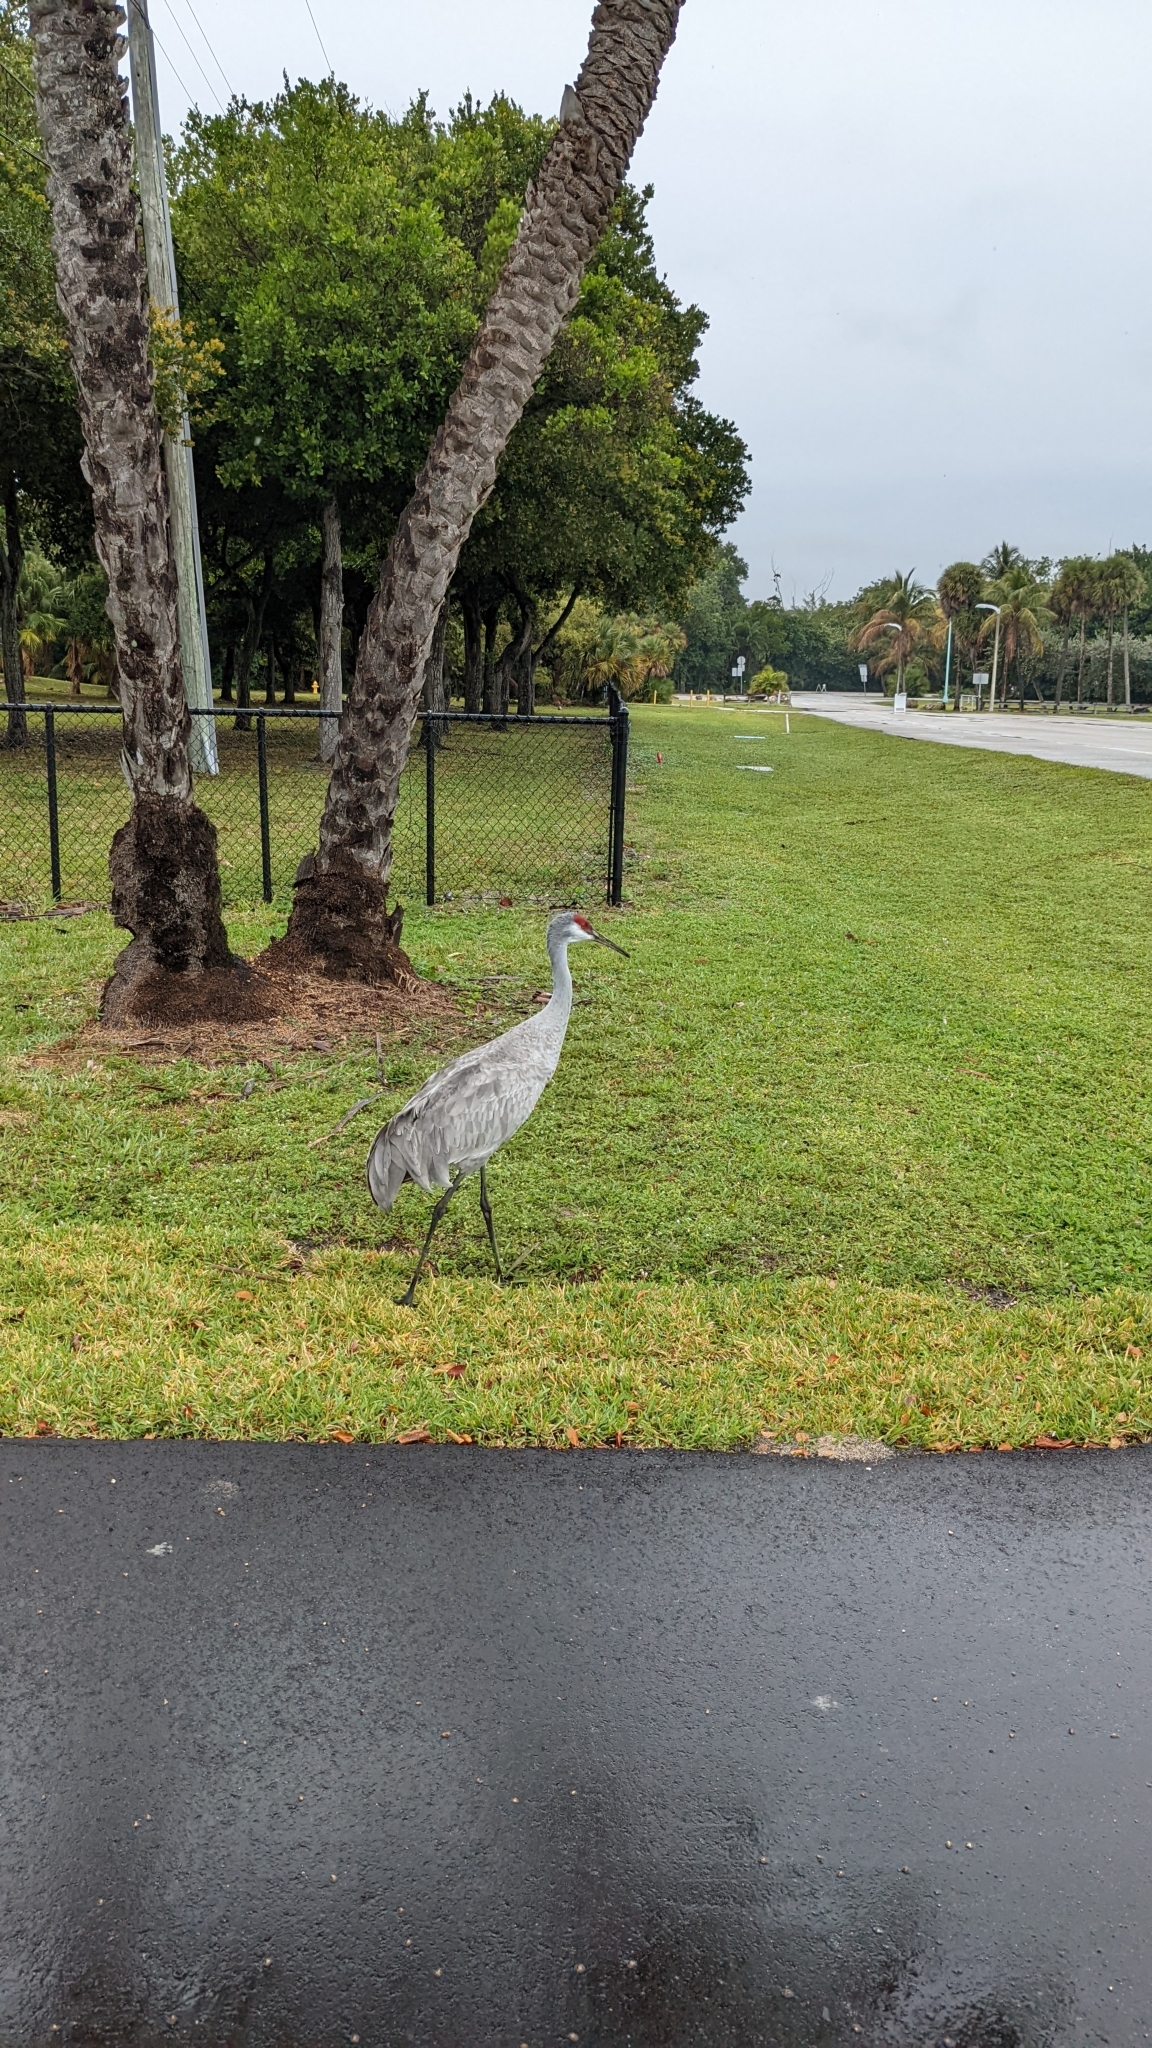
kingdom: Animalia
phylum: Chordata
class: Aves
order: Gruiformes
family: Gruidae
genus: Grus
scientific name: Grus canadensis
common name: Sandhill crane
